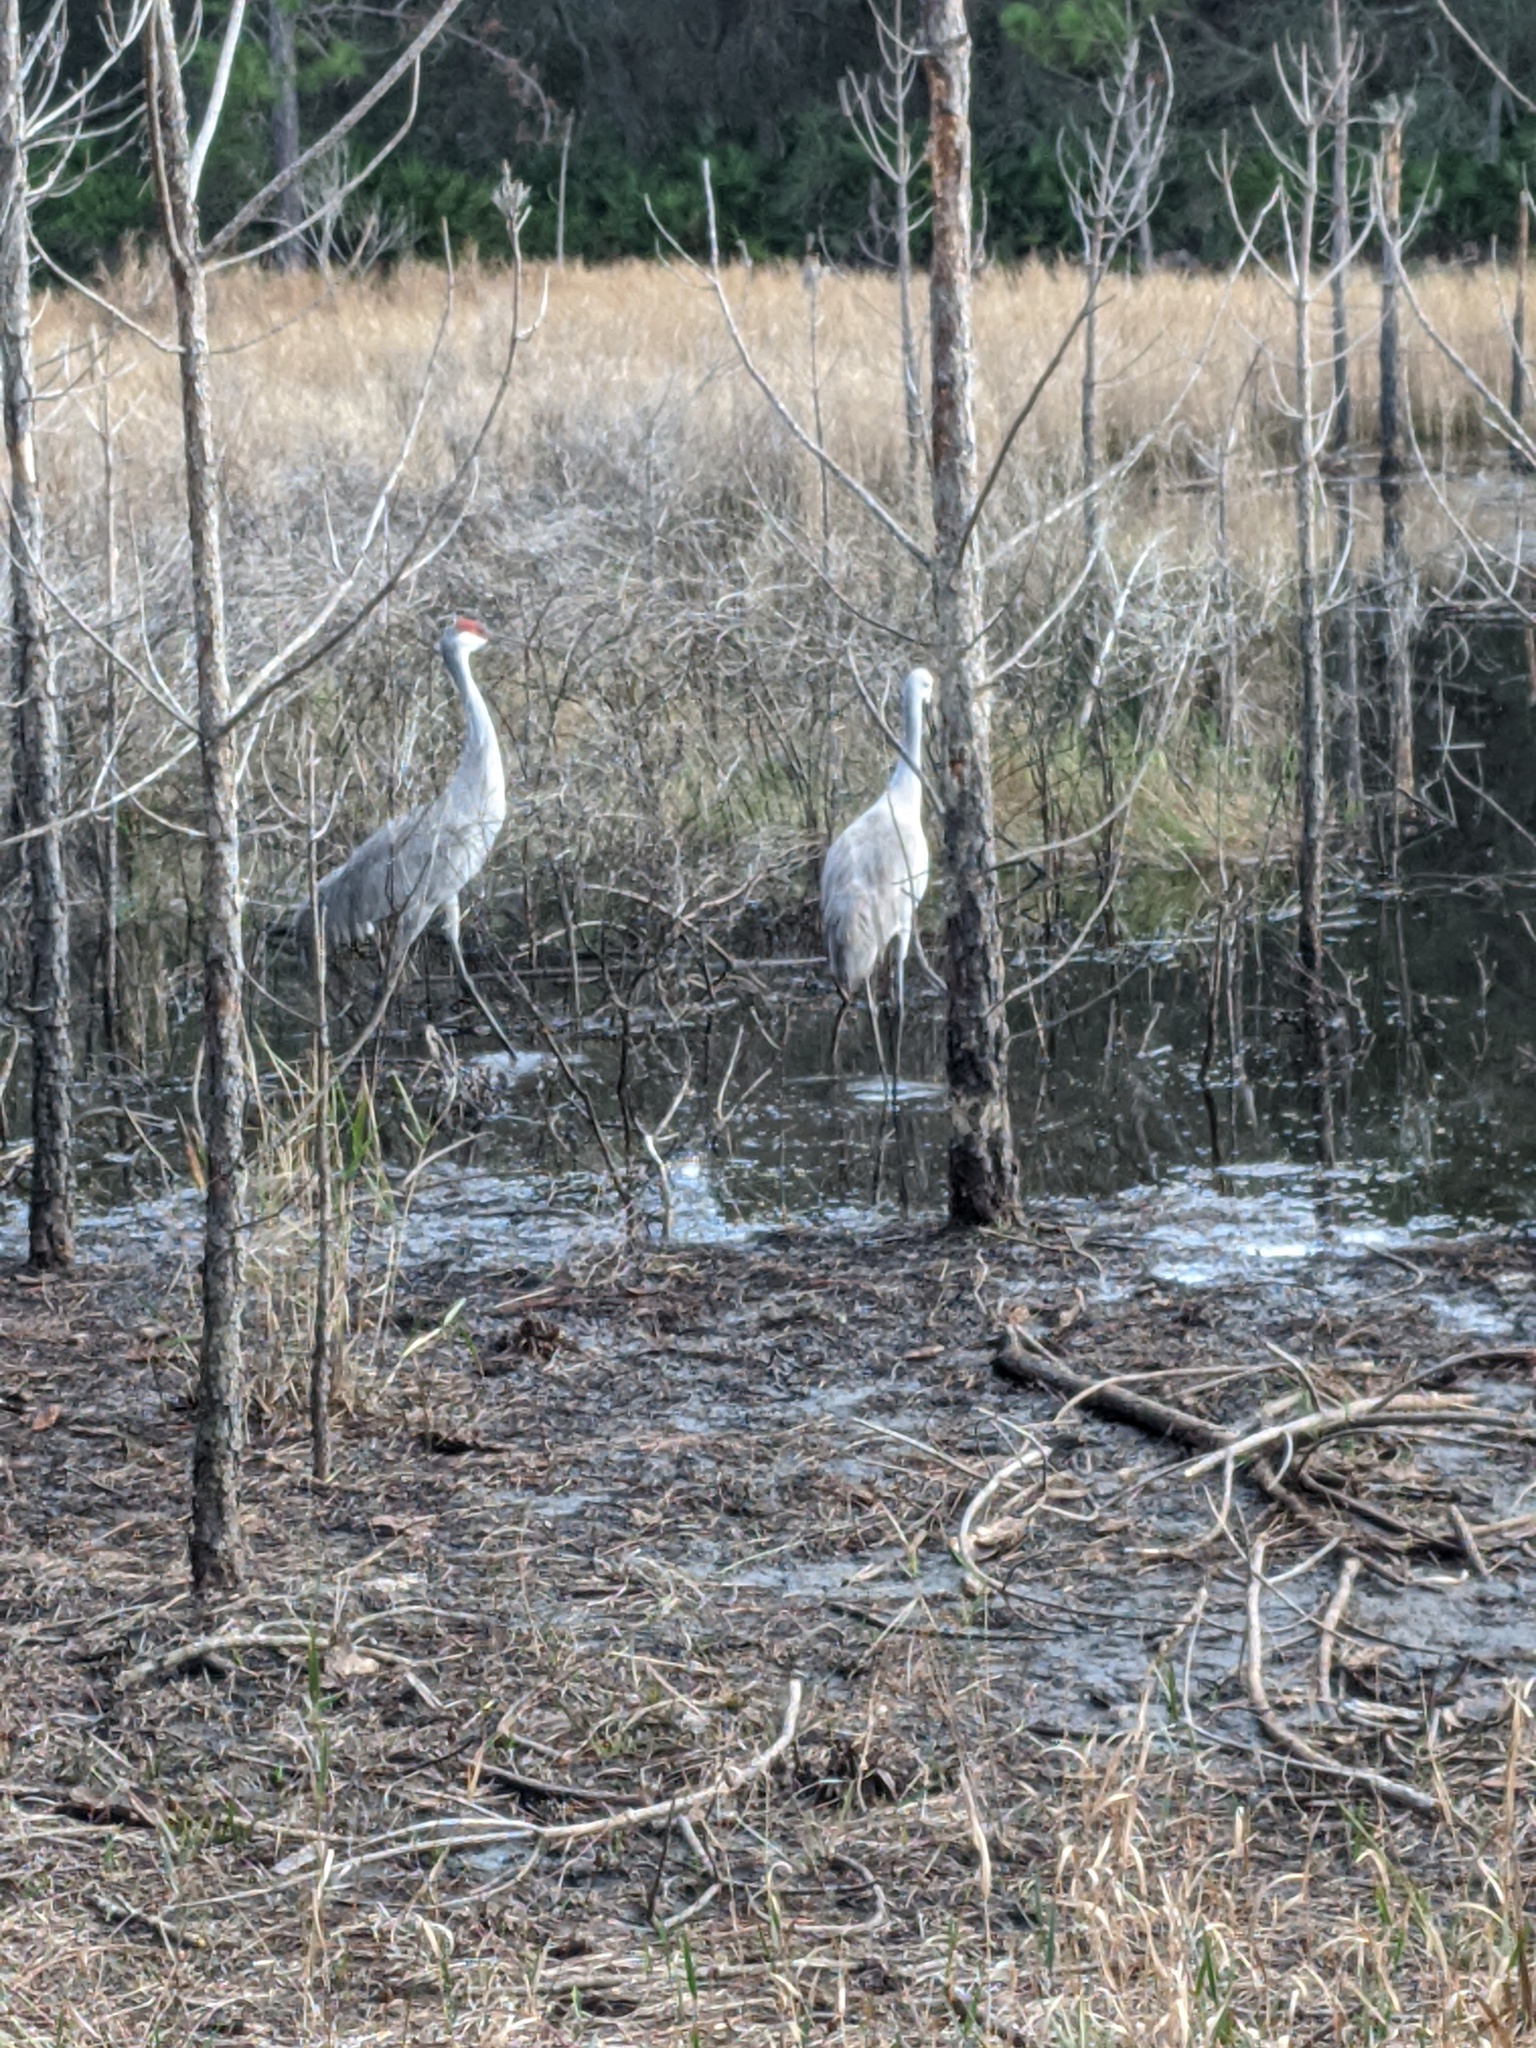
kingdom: Animalia
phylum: Chordata
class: Aves
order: Gruiformes
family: Gruidae
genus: Grus
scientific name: Grus canadensis
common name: Sandhill crane
